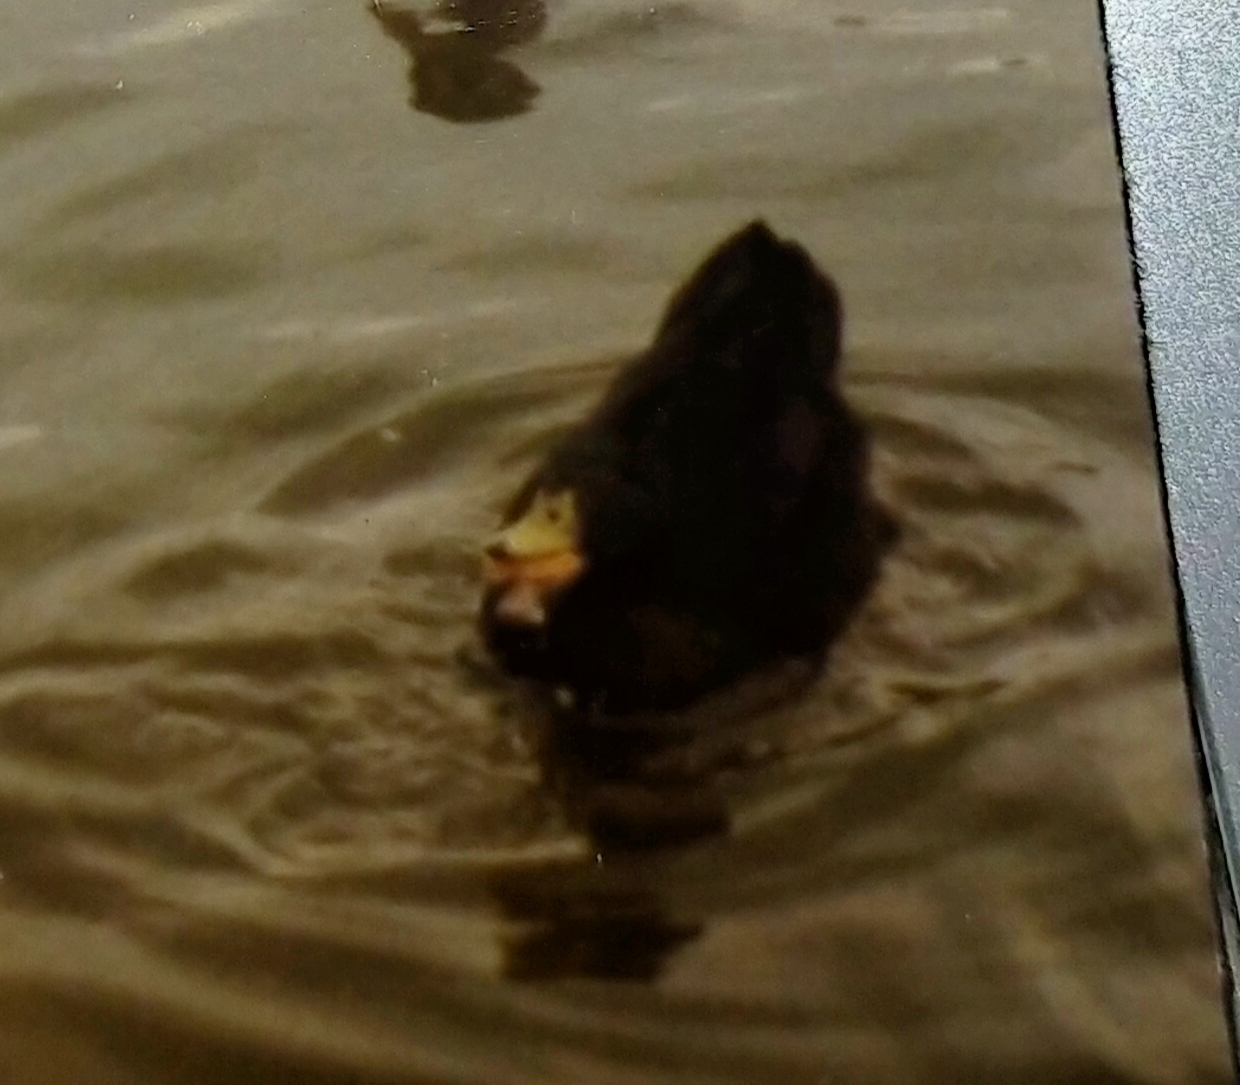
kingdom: Animalia
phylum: Chordata
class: Aves
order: Anseriformes
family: Anatidae
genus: Anas
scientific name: Anas platyrhynchos
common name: Mallard
